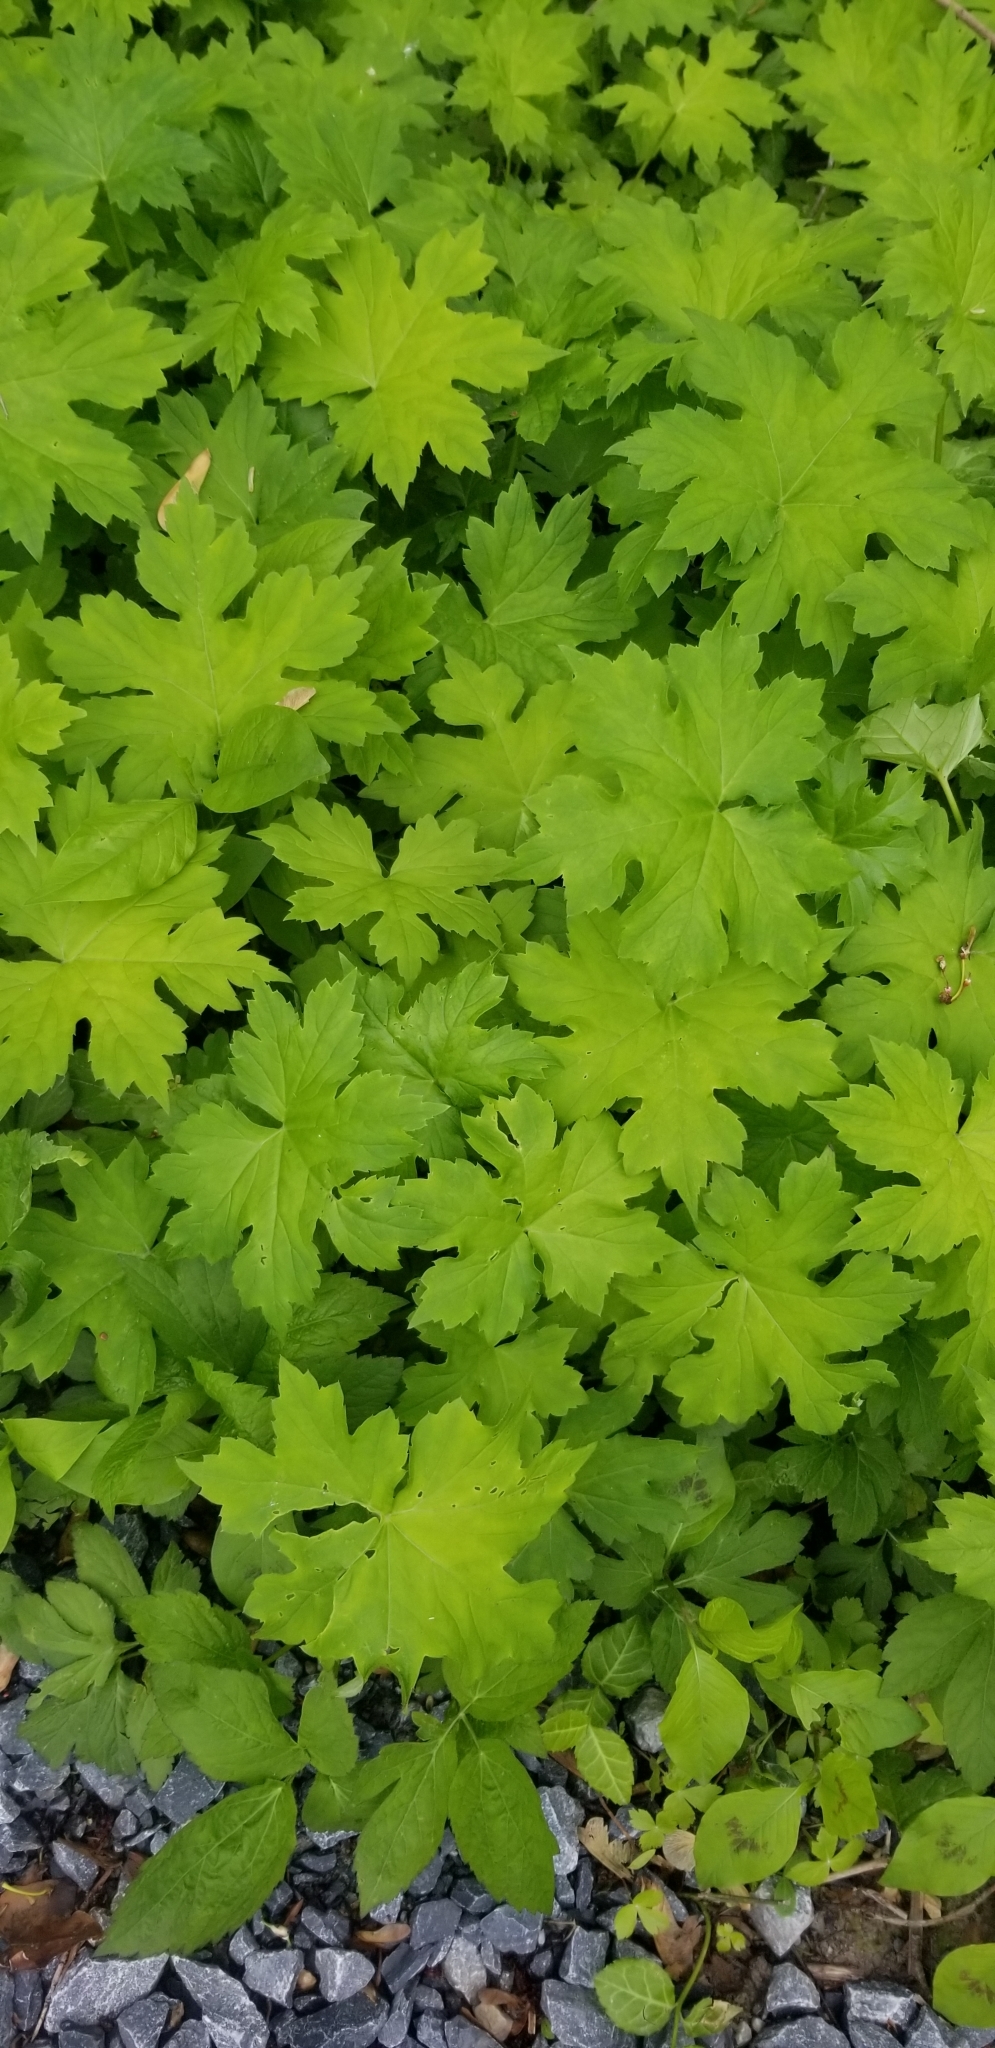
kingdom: Plantae
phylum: Tracheophyta
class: Magnoliopsida
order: Boraginales
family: Hydrophyllaceae
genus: Hydrophyllum
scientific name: Hydrophyllum canadense
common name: Canada waterleaf
